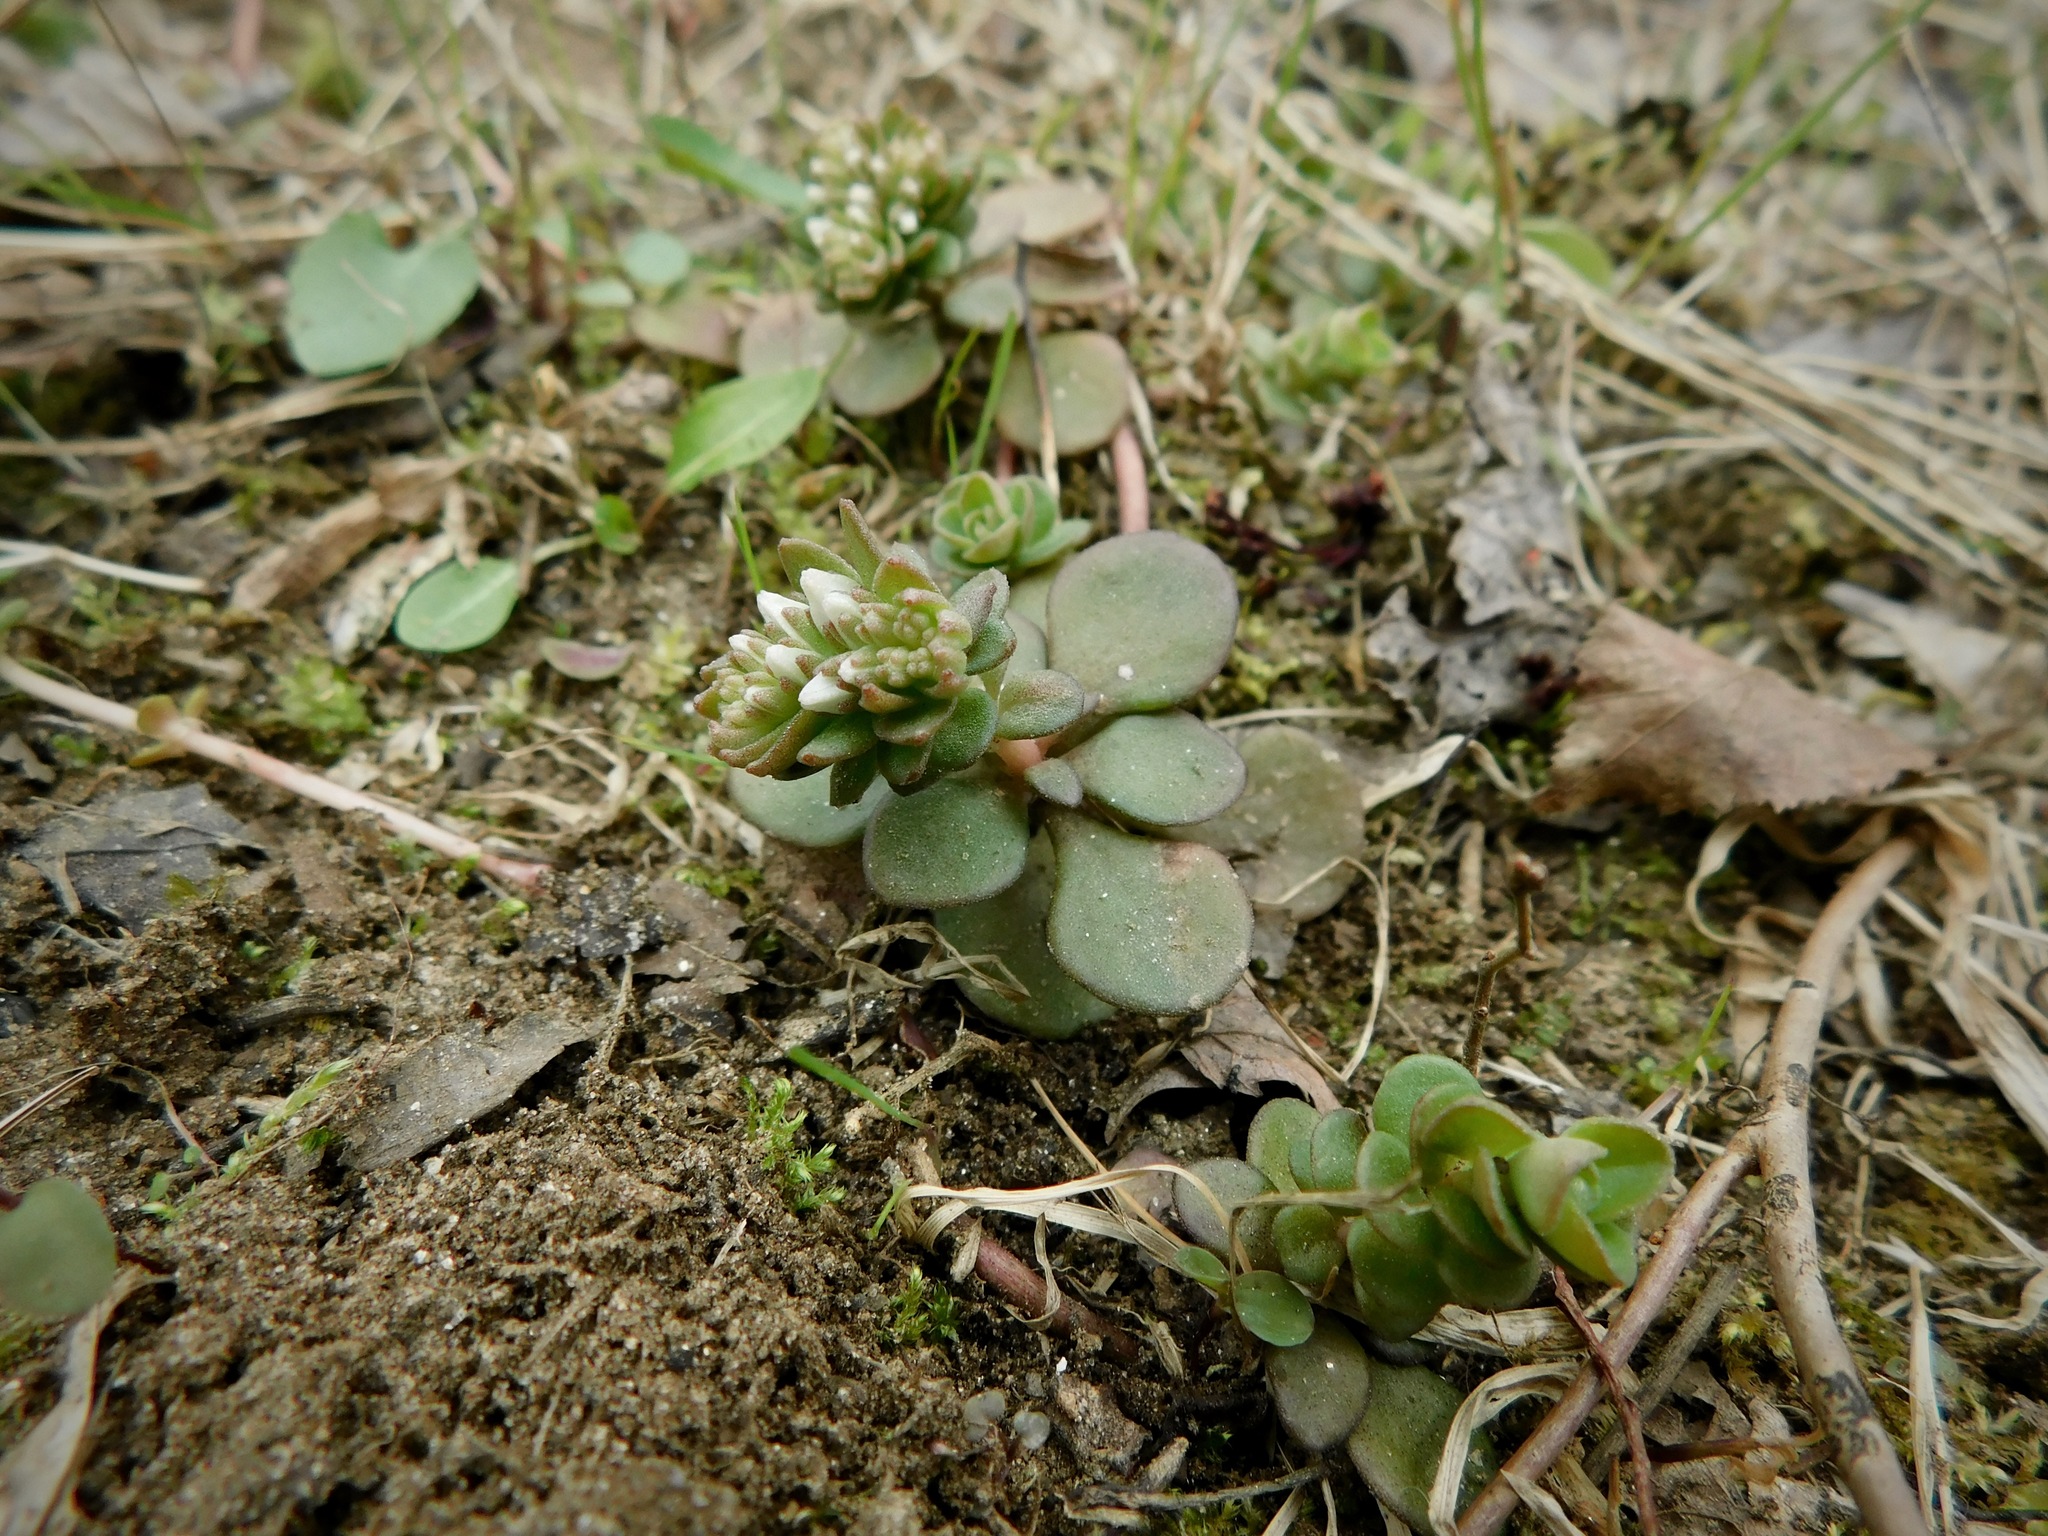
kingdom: Plantae
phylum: Tracheophyta
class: Magnoliopsida
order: Saxifragales
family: Crassulaceae
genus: Sedum
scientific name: Sedum ternatum
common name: Wild stonecrop
